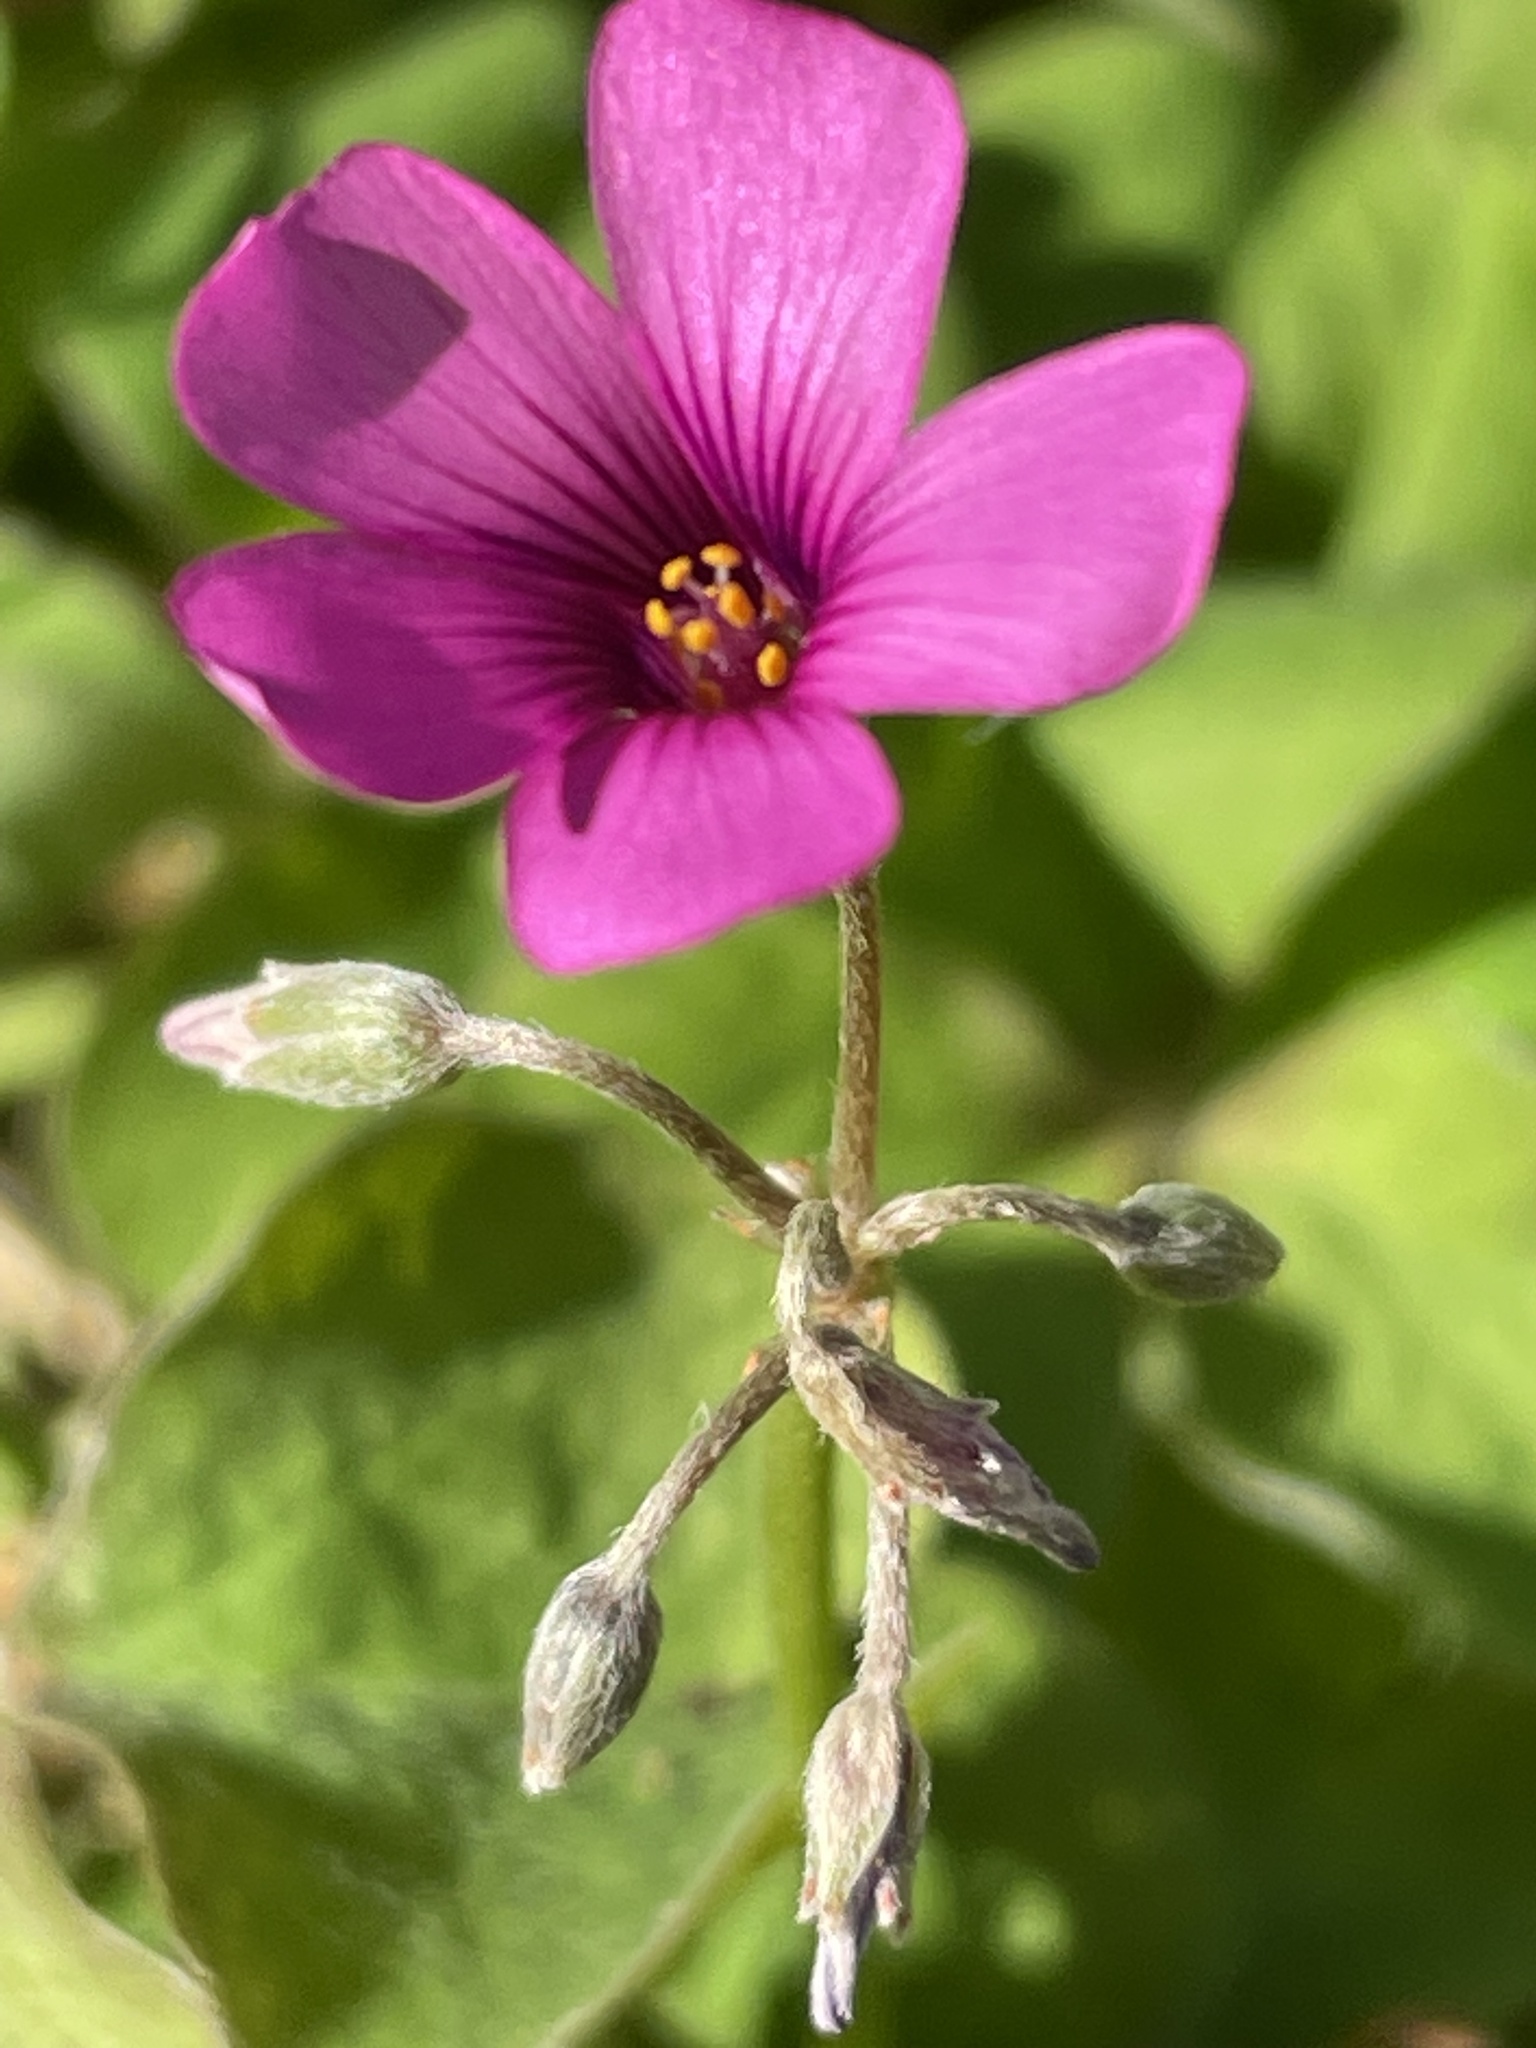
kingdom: Plantae
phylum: Tracheophyta
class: Magnoliopsida
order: Oxalidales
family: Oxalidaceae
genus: Oxalis
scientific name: Oxalis articulata
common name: Pink-sorrel
